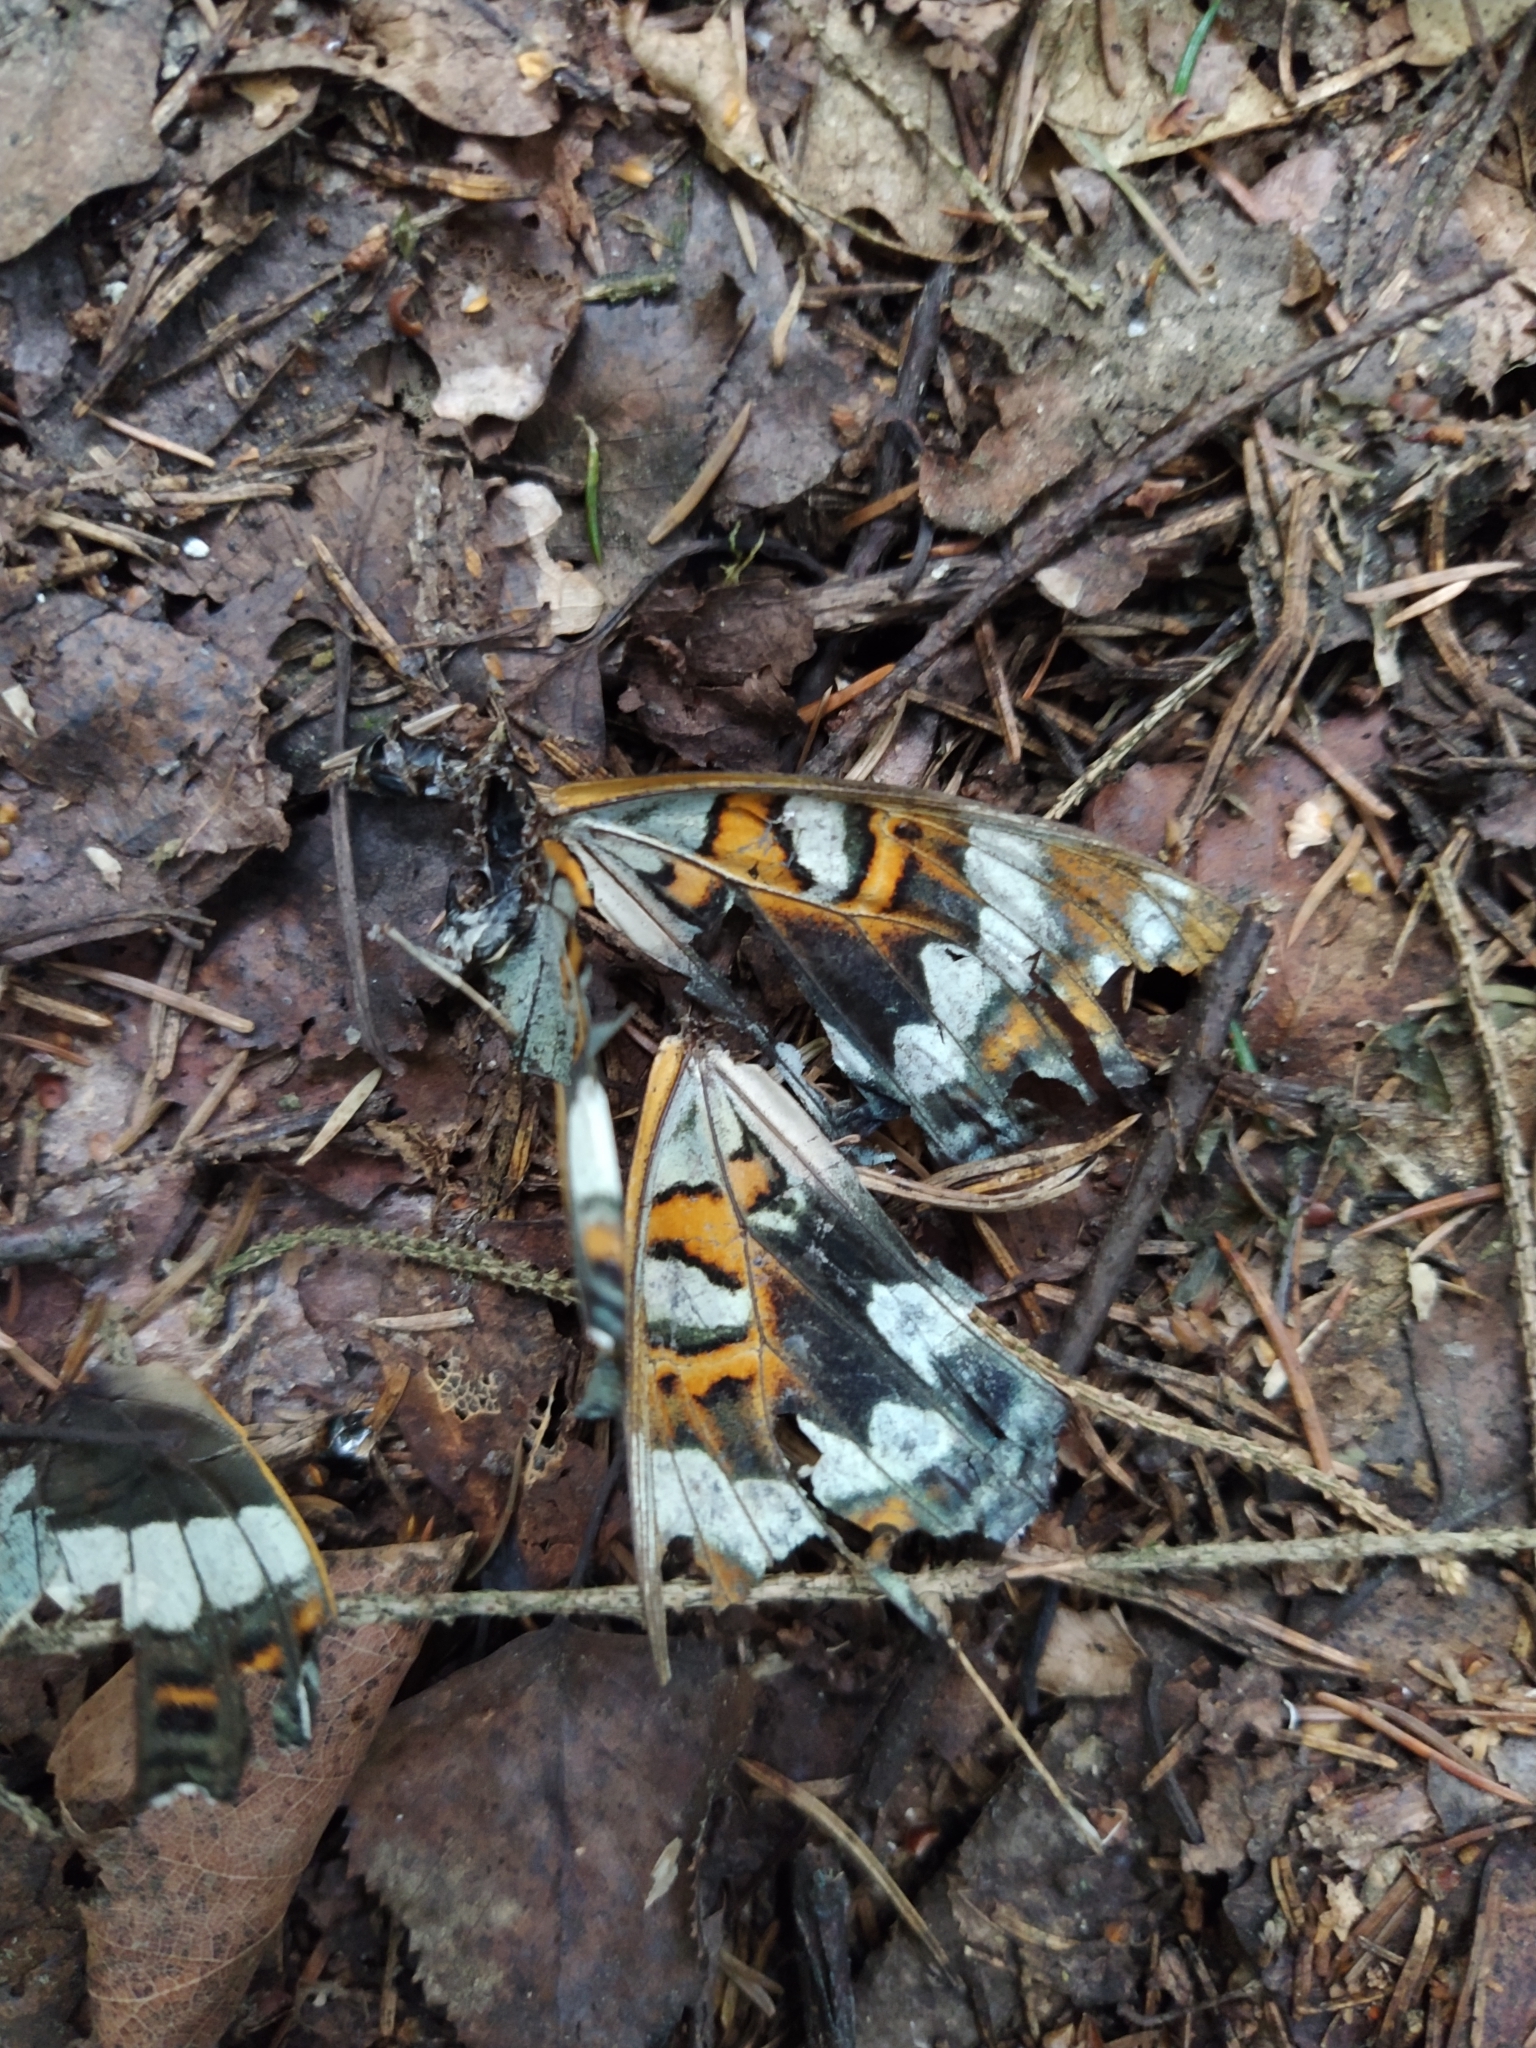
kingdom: Animalia
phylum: Arthropoda
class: Insecta
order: Lepidoptera
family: Nymphalidae
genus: Limenitis
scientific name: Limenitis populi
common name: Poplar admiral
